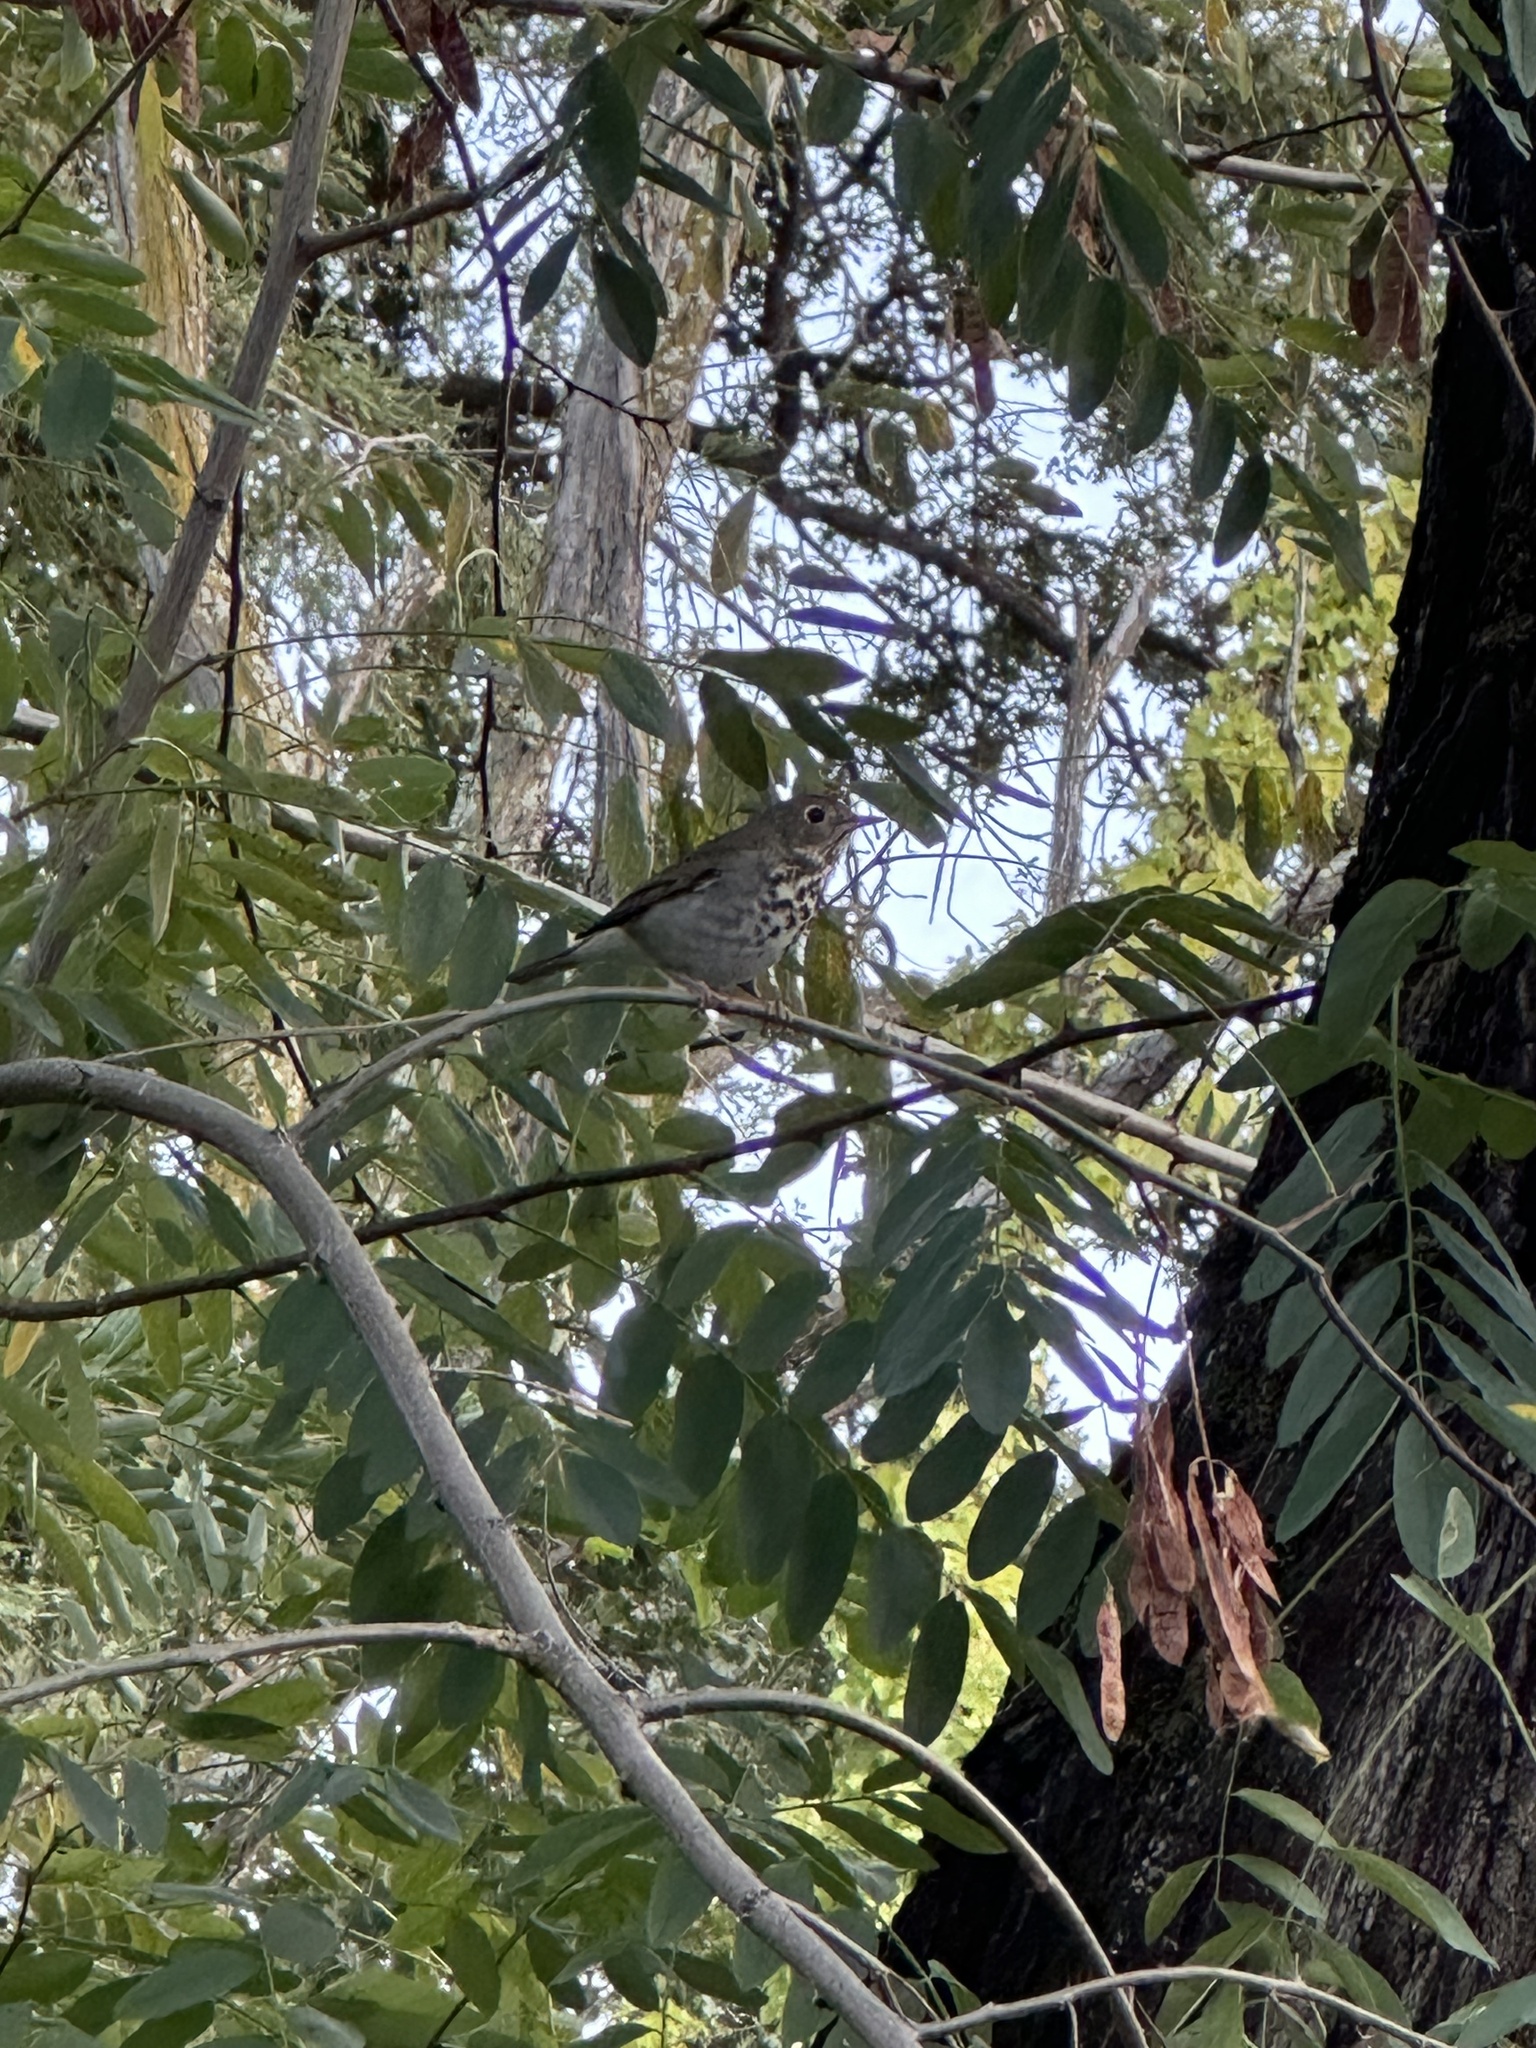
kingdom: Animalia
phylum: Chordata
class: Aves
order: Passeriformes
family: Turdidae
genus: Catharus
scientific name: Catharus guttatus
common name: Hermit thrush
